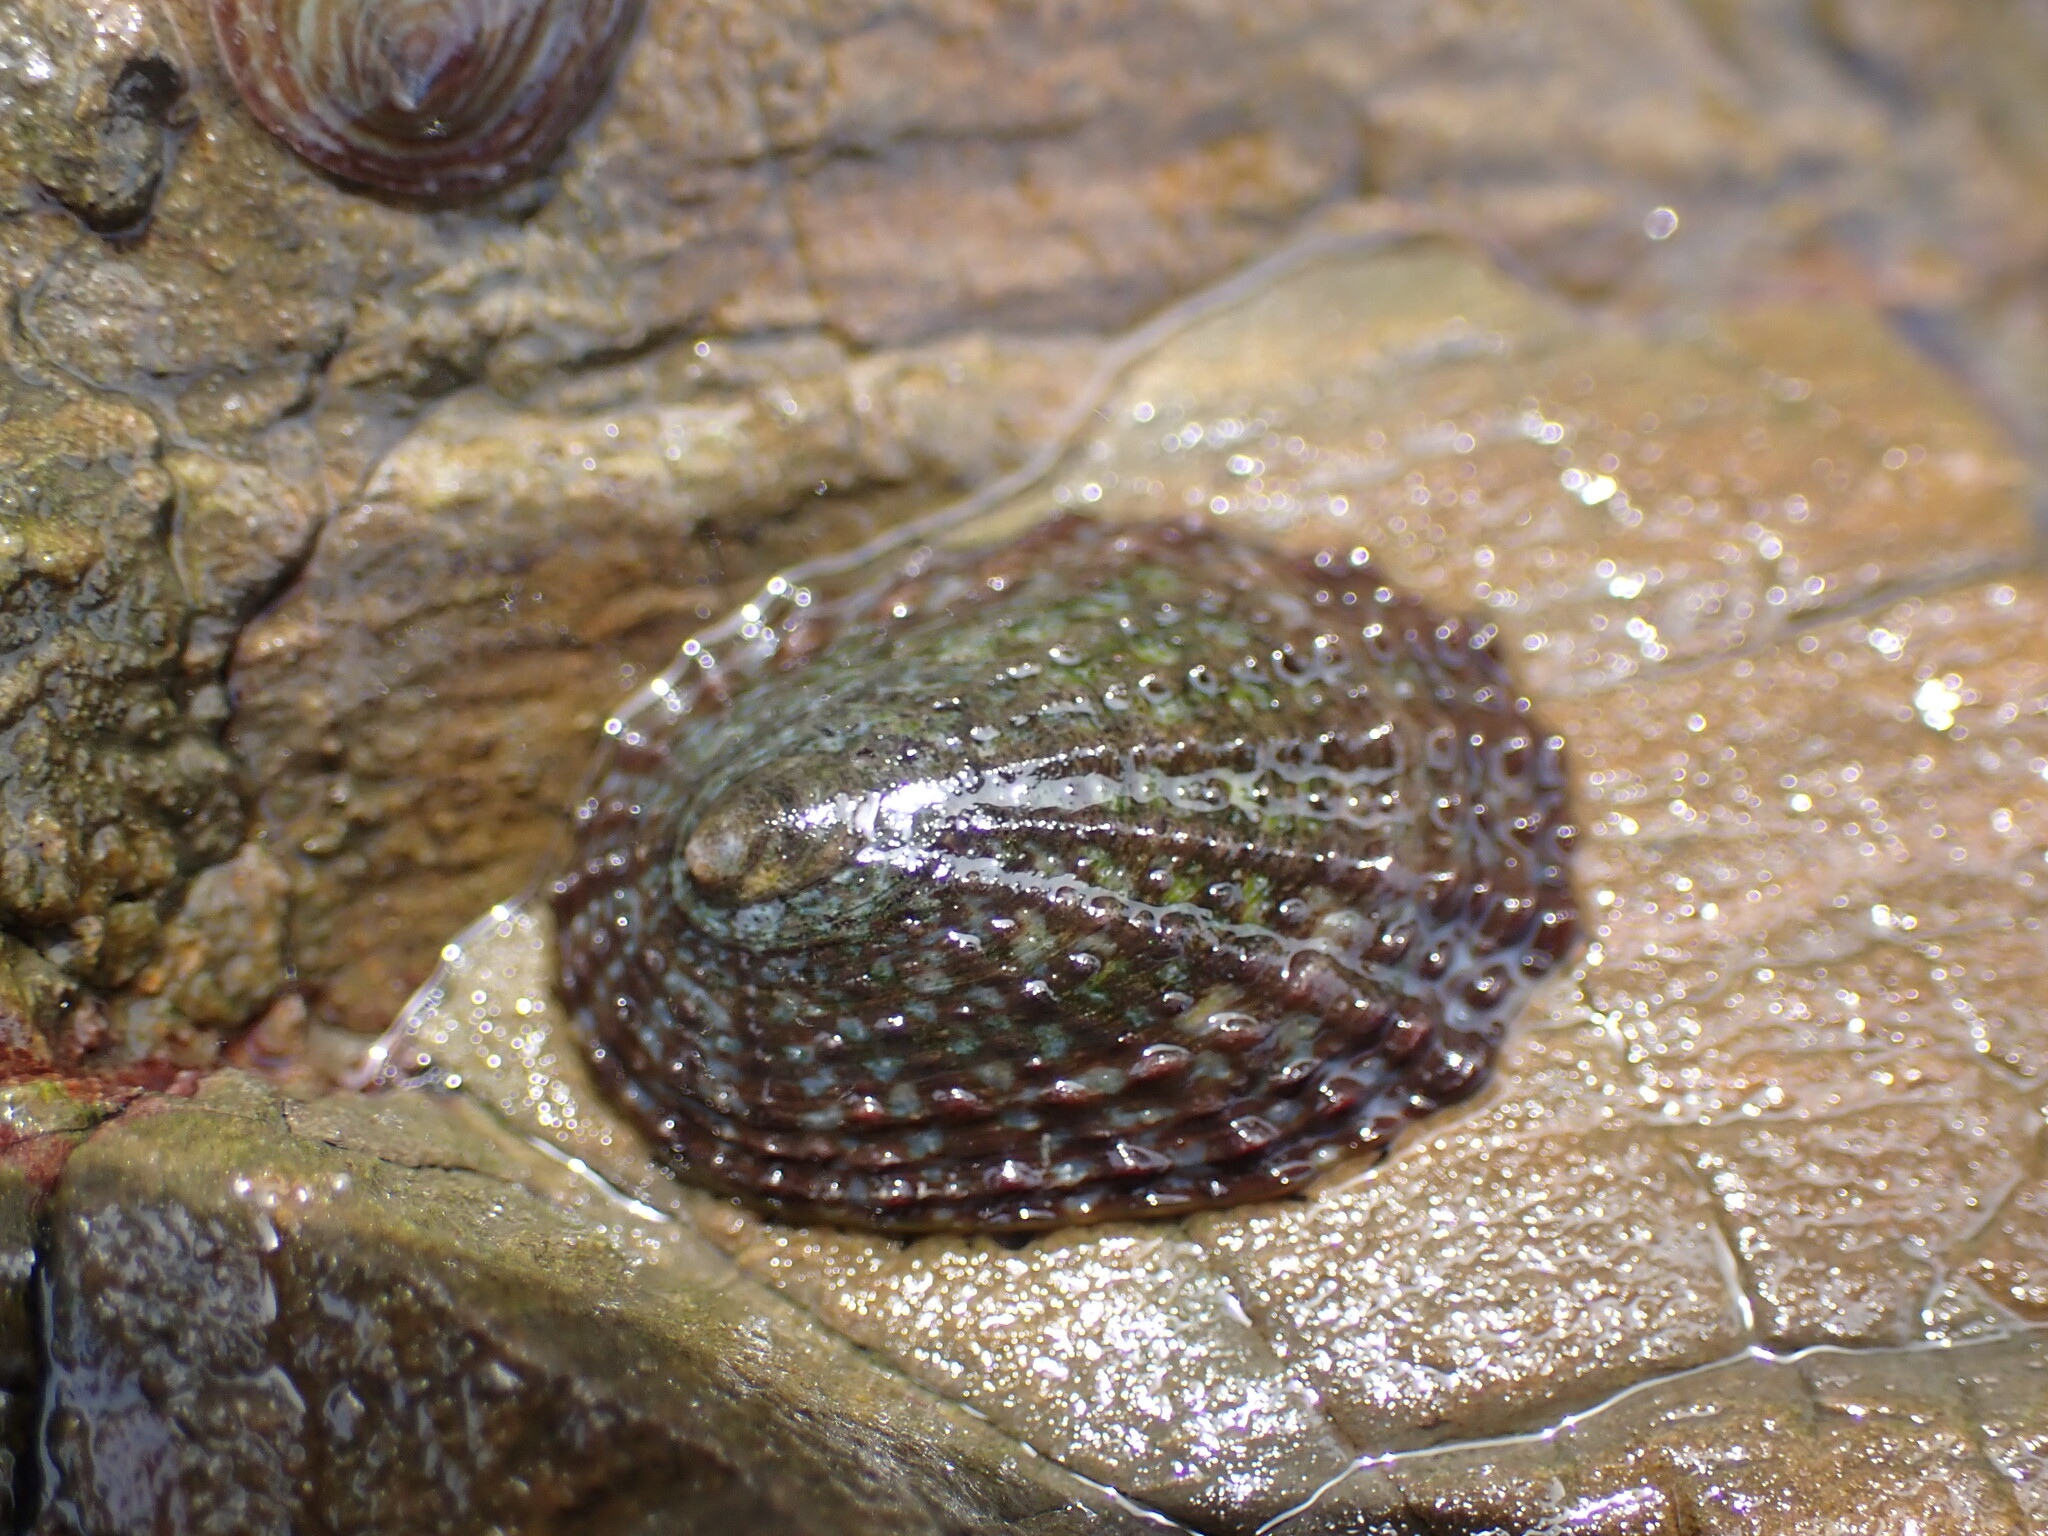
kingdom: Animalia
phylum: Mollusca
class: Gastropoda
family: Nacellidae
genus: Cellana
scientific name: Cellana denticulata
